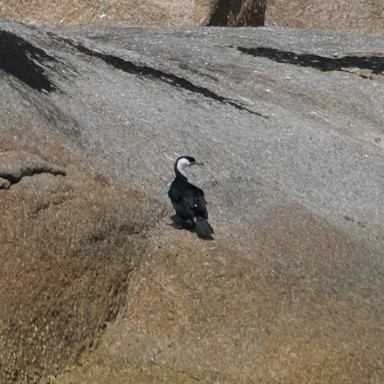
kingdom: Animalia
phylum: Chordata
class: Aves
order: Suliformes
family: Phalacrocoracidae
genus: Phalacrocorax
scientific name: Phalacrocorax fuscescens
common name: Black-faced cormorant
